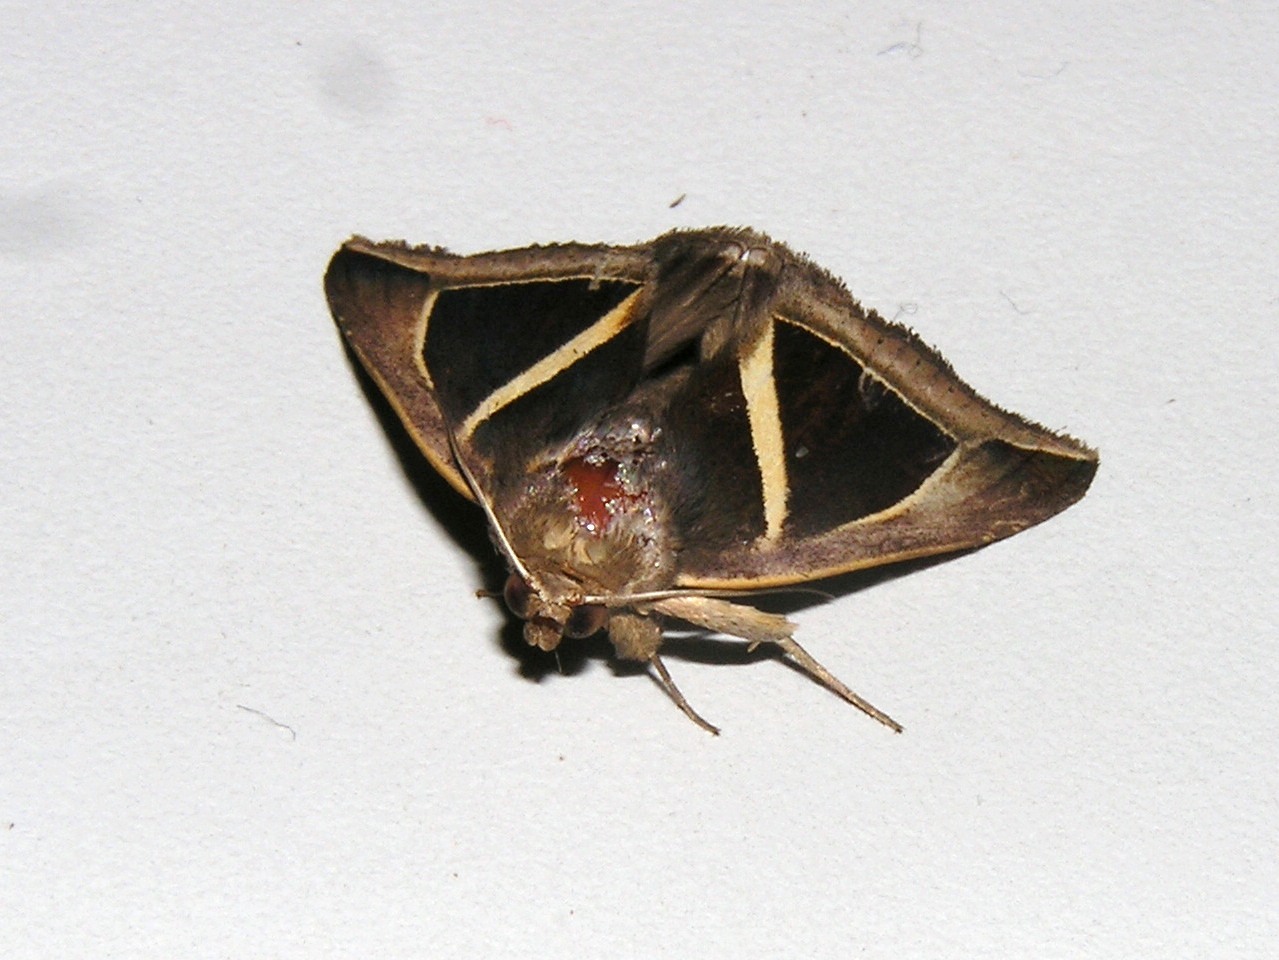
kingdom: Animalia
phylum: Arthropoda
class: Insecta
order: Lepidoptera
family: Erebidae
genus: Chalciope
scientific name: Chalciope mygdon
